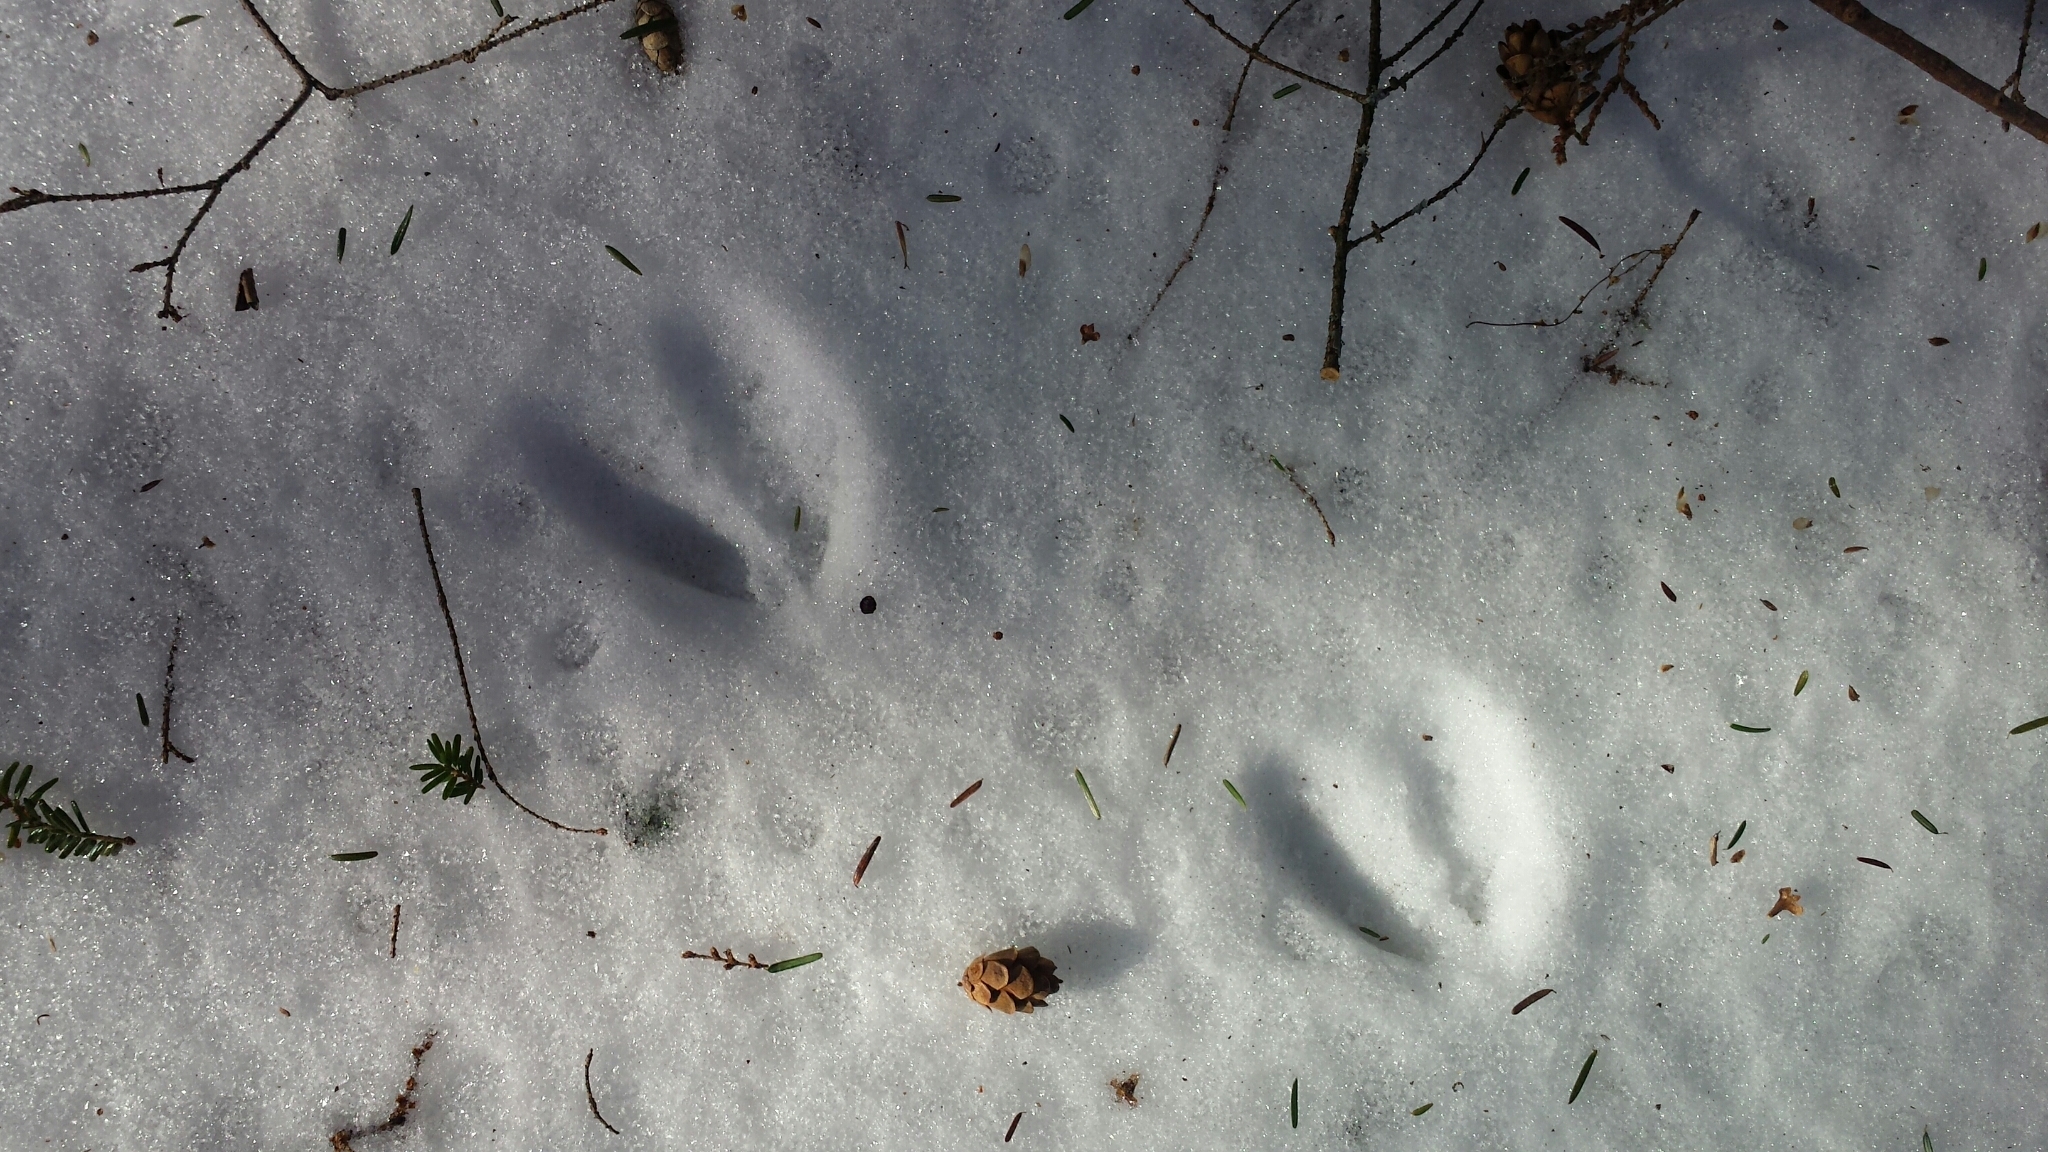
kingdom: Animalia
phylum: Chordata
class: Mammalia
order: Artiodactyla
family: Cervidae
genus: Odocoileus
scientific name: Odocoileus virginianus
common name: White-tailed deer
